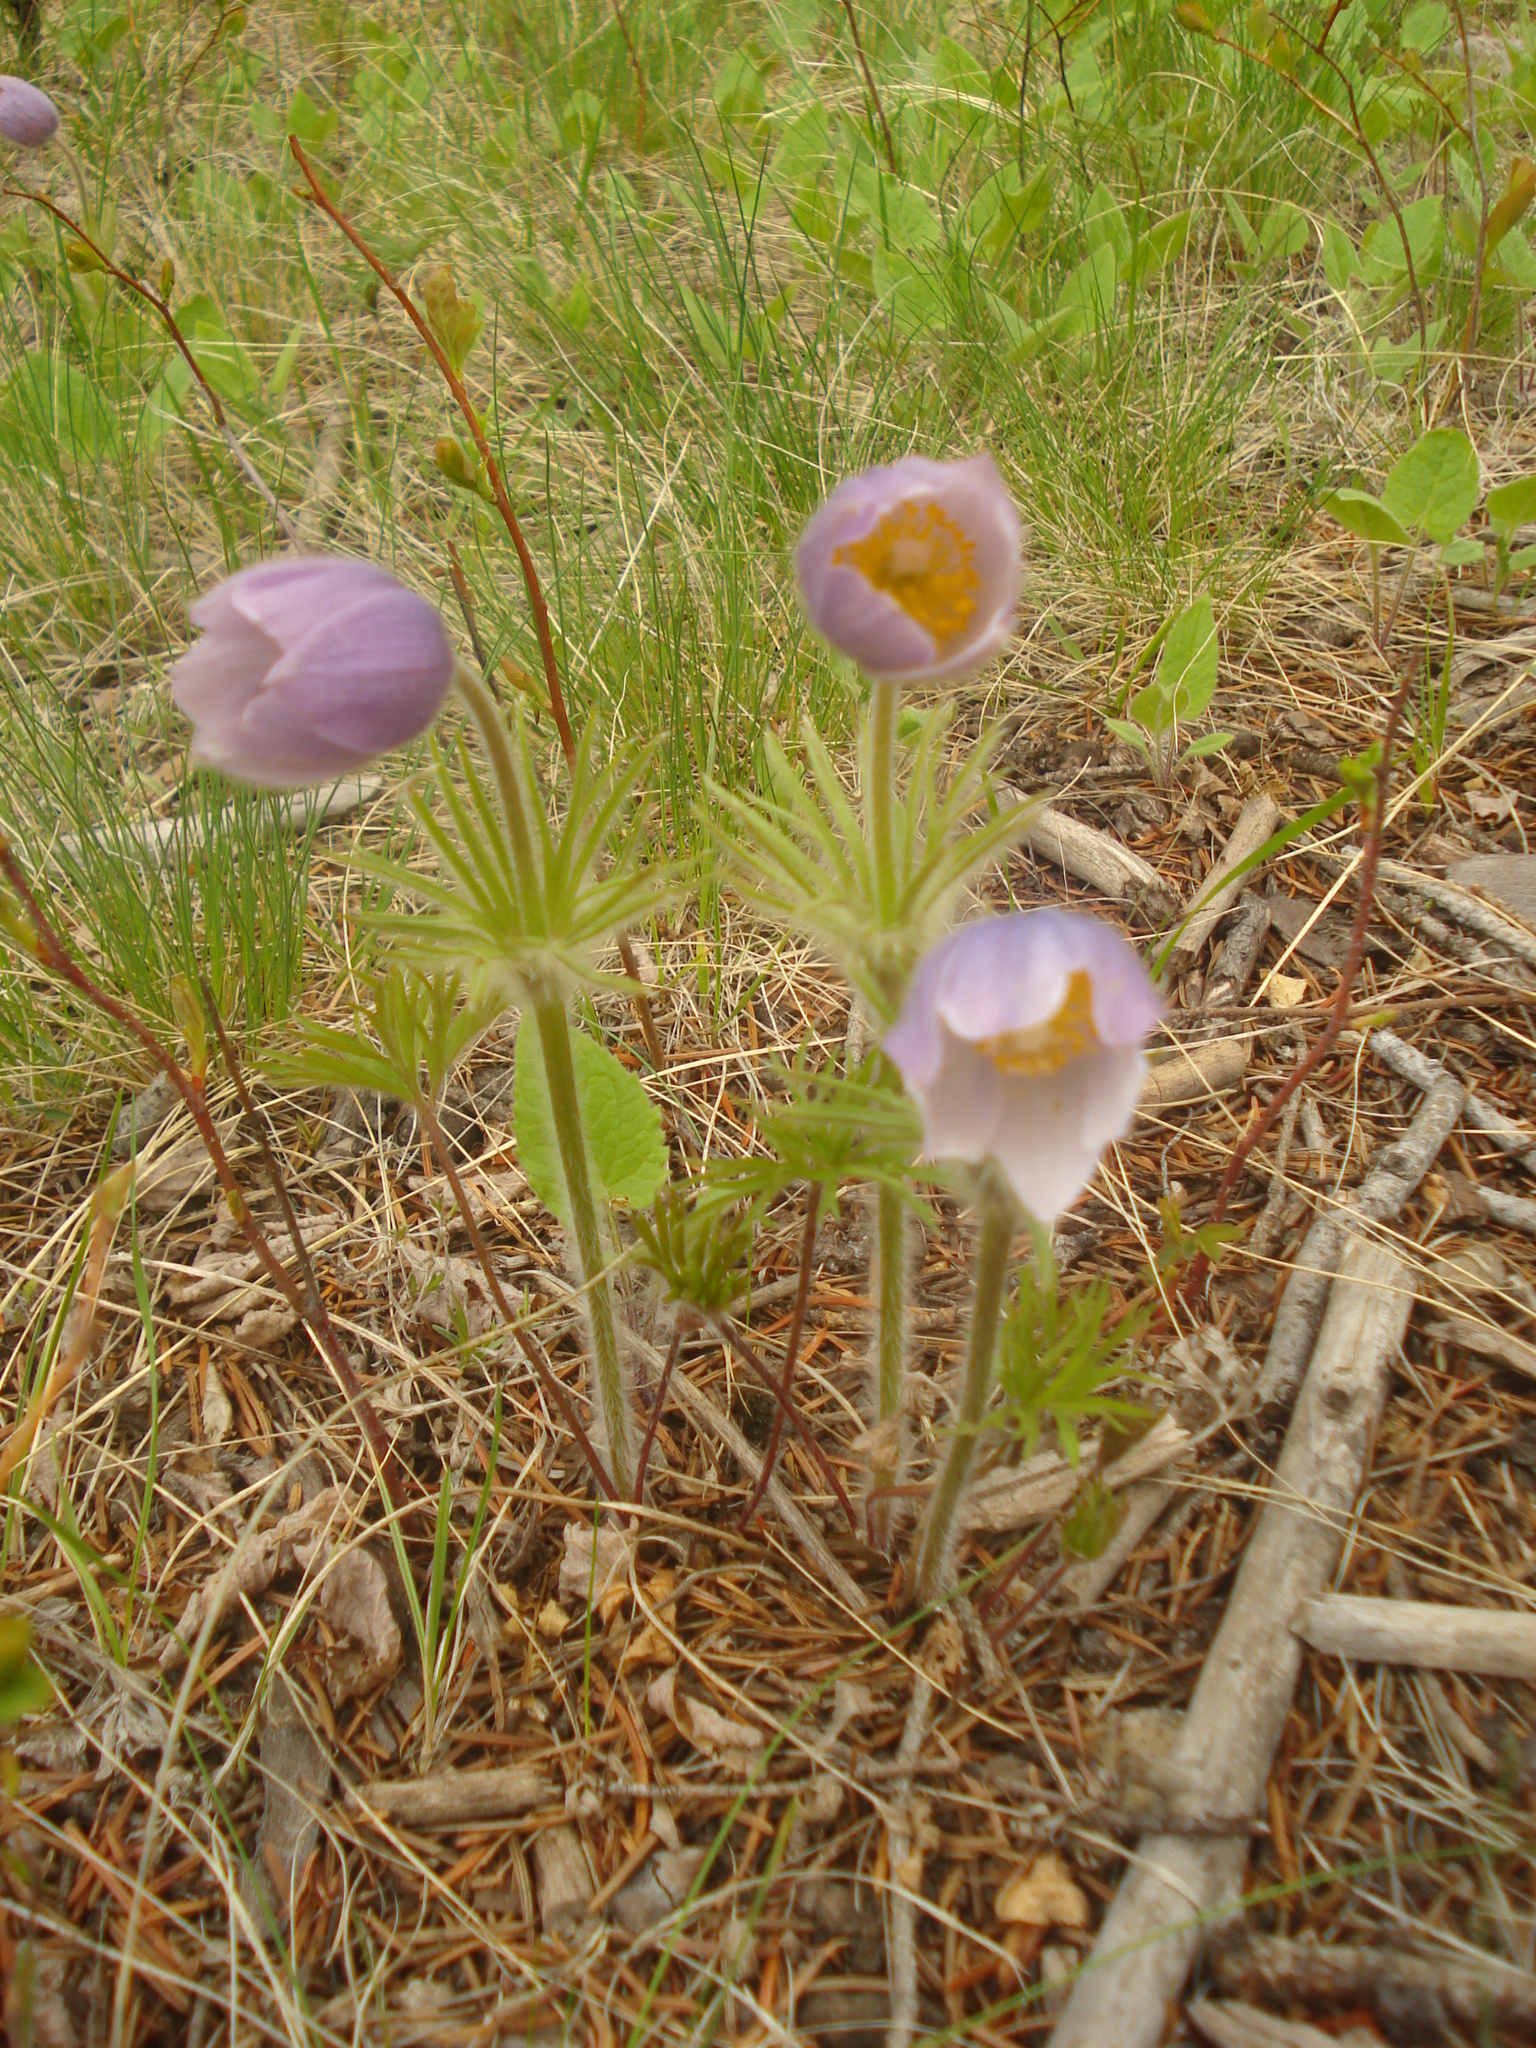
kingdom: Plantae
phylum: Tracheophyta
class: Magnoliopsida
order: Ranunculales
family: Ranunculaceae
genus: Pulsatilla
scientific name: Pulsatilla nuttalliana
